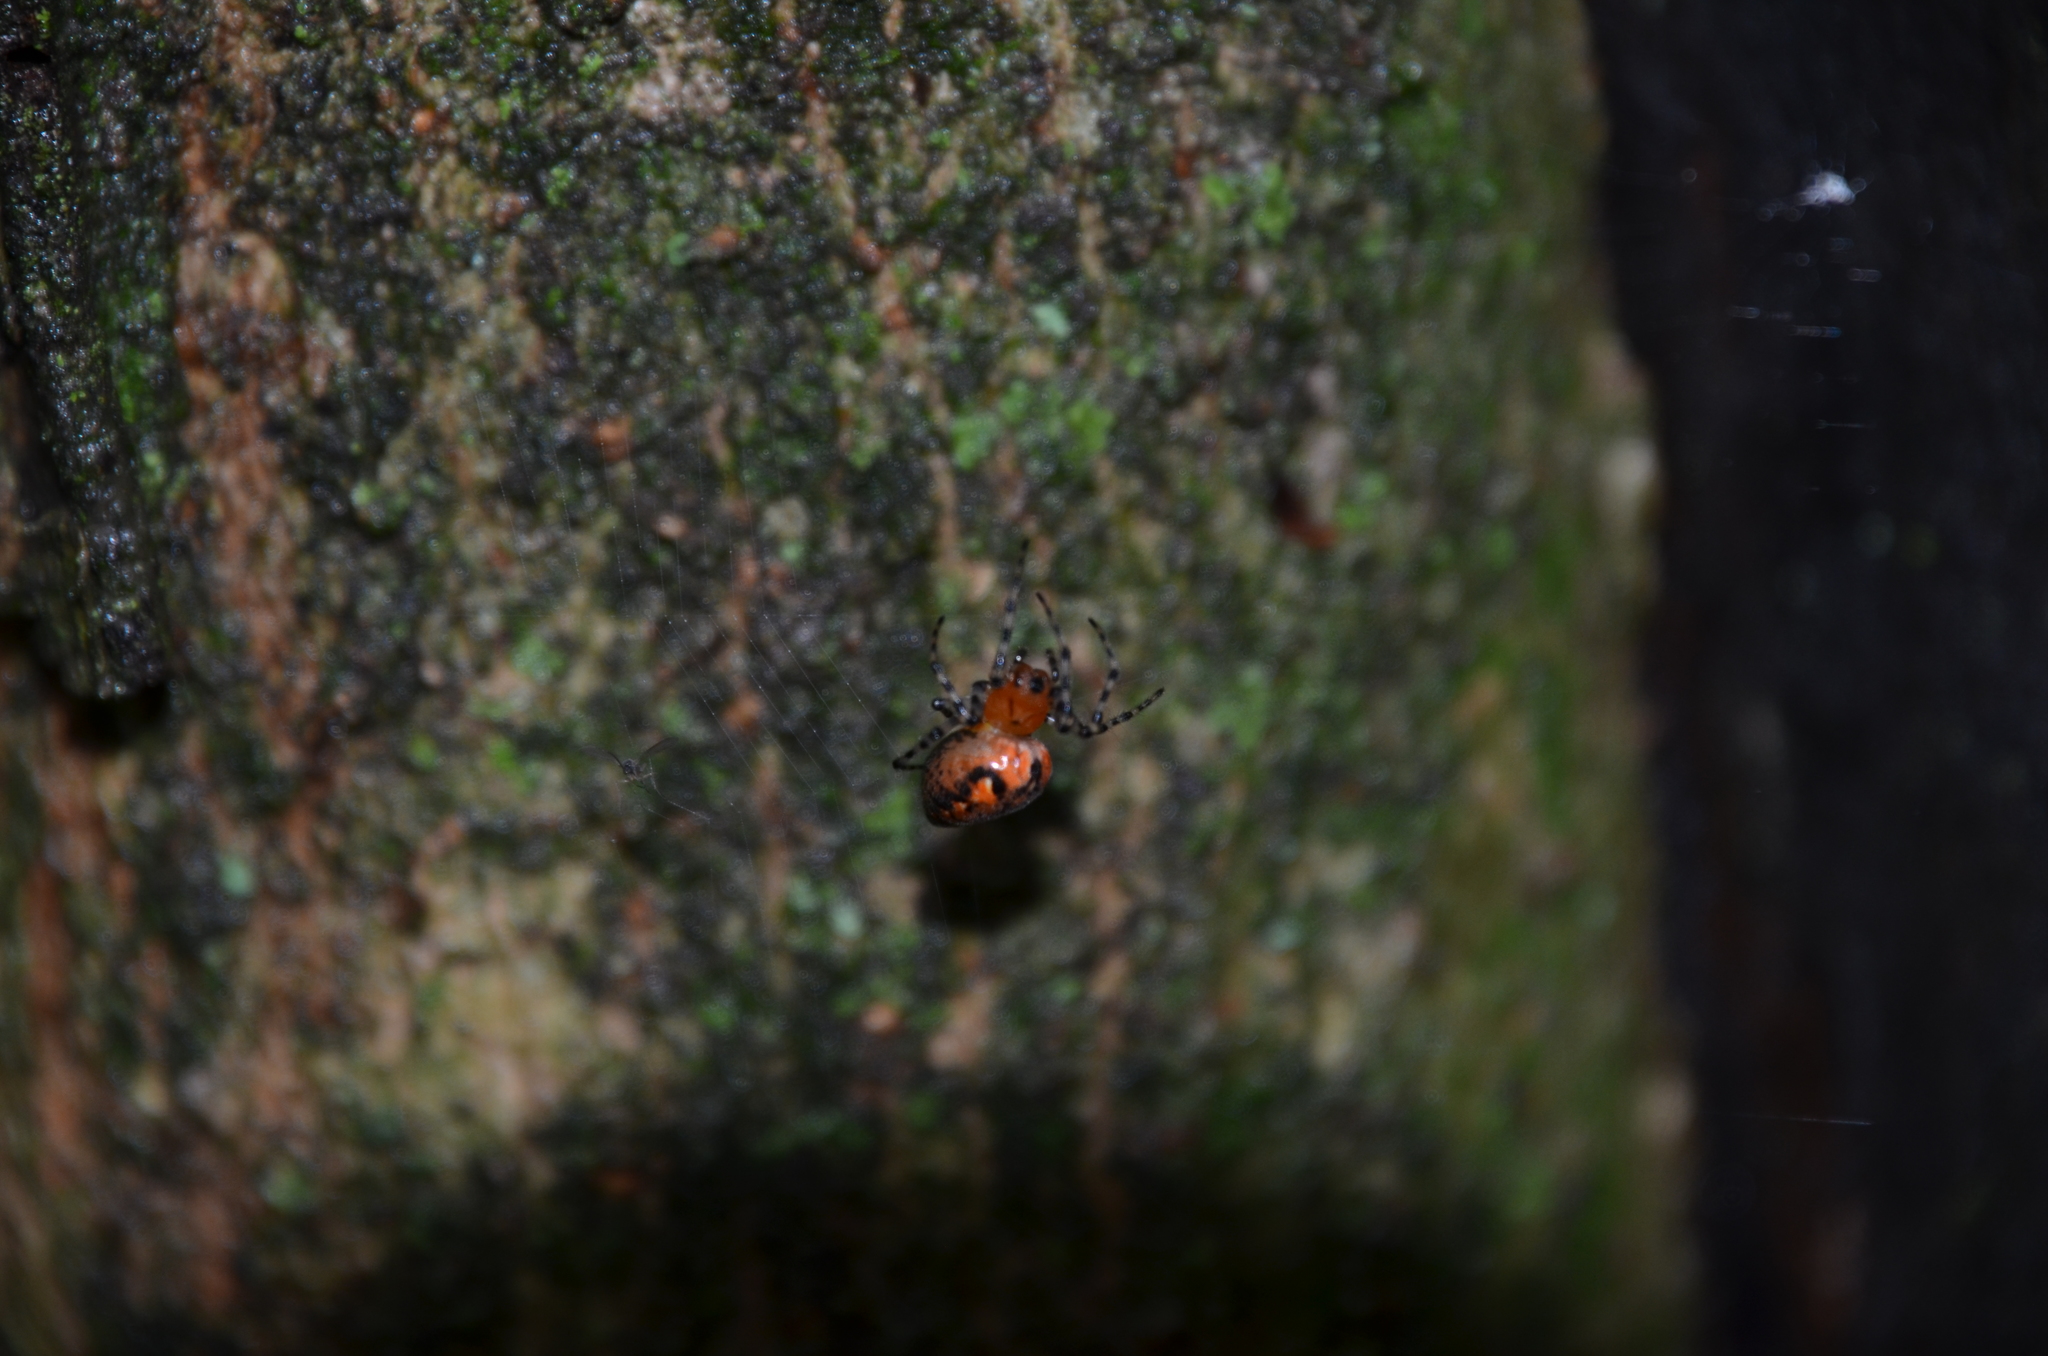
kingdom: Animalia
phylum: Arthropoda
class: Arachnida
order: Araneae
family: Araneidae
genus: Alpaida
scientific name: Alpaida gallardoi
